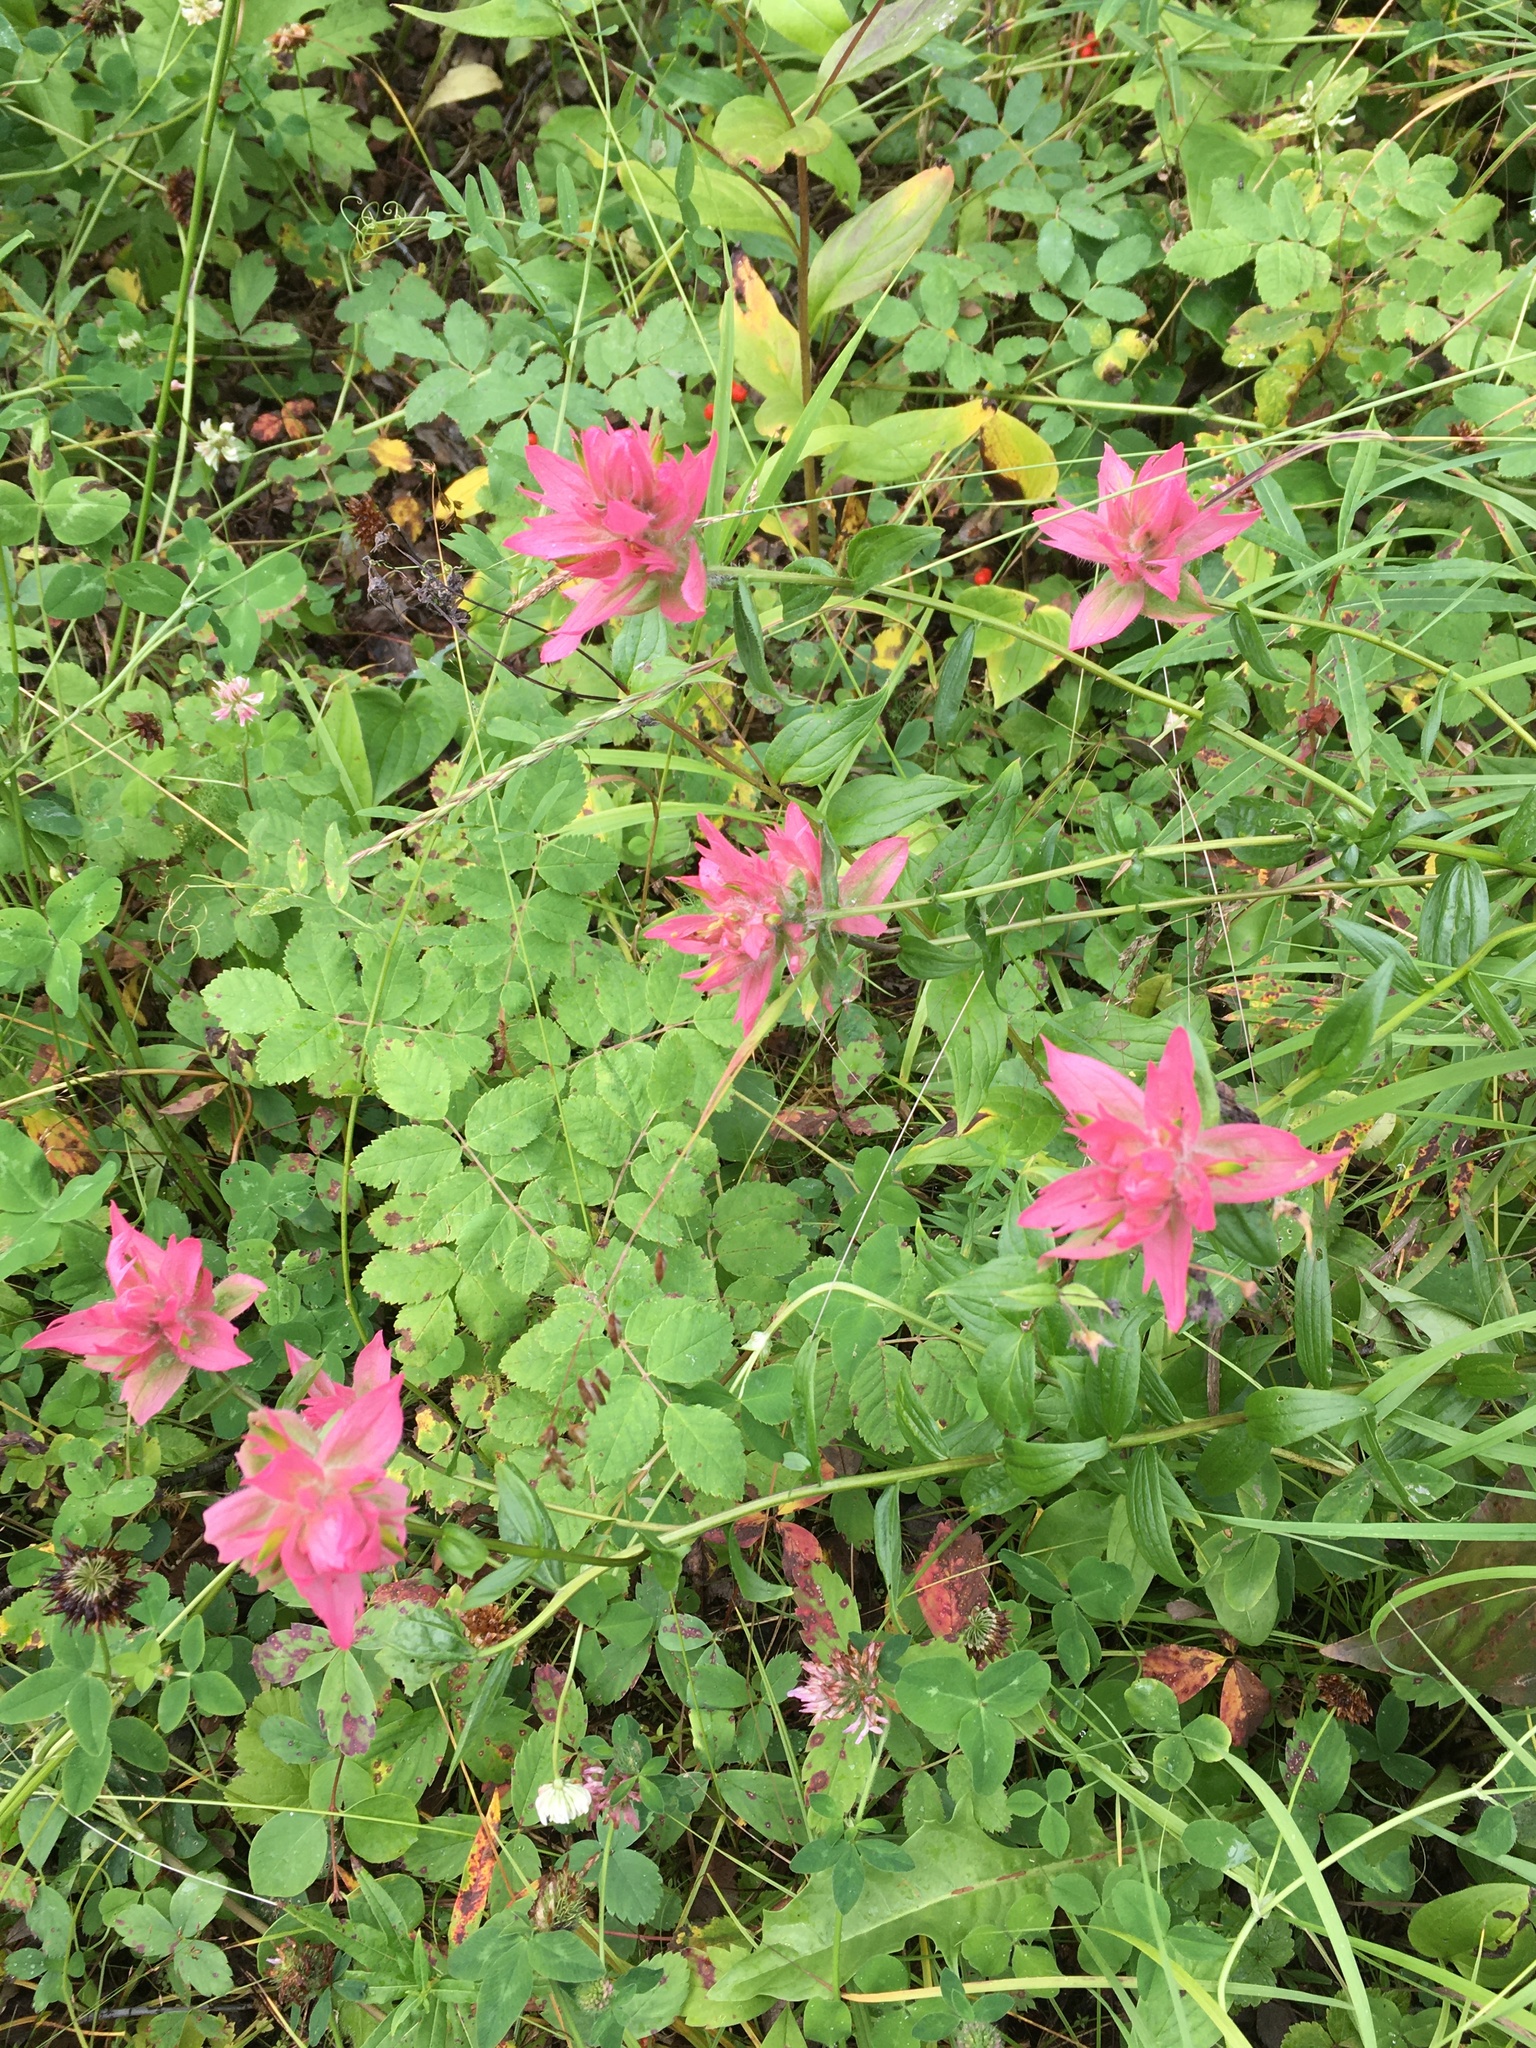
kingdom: Plantae
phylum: Tracheophyta
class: Magnoliopsida
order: Lamiales
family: Orobanchaceae
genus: Castilleja
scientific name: Castilleja miniata
